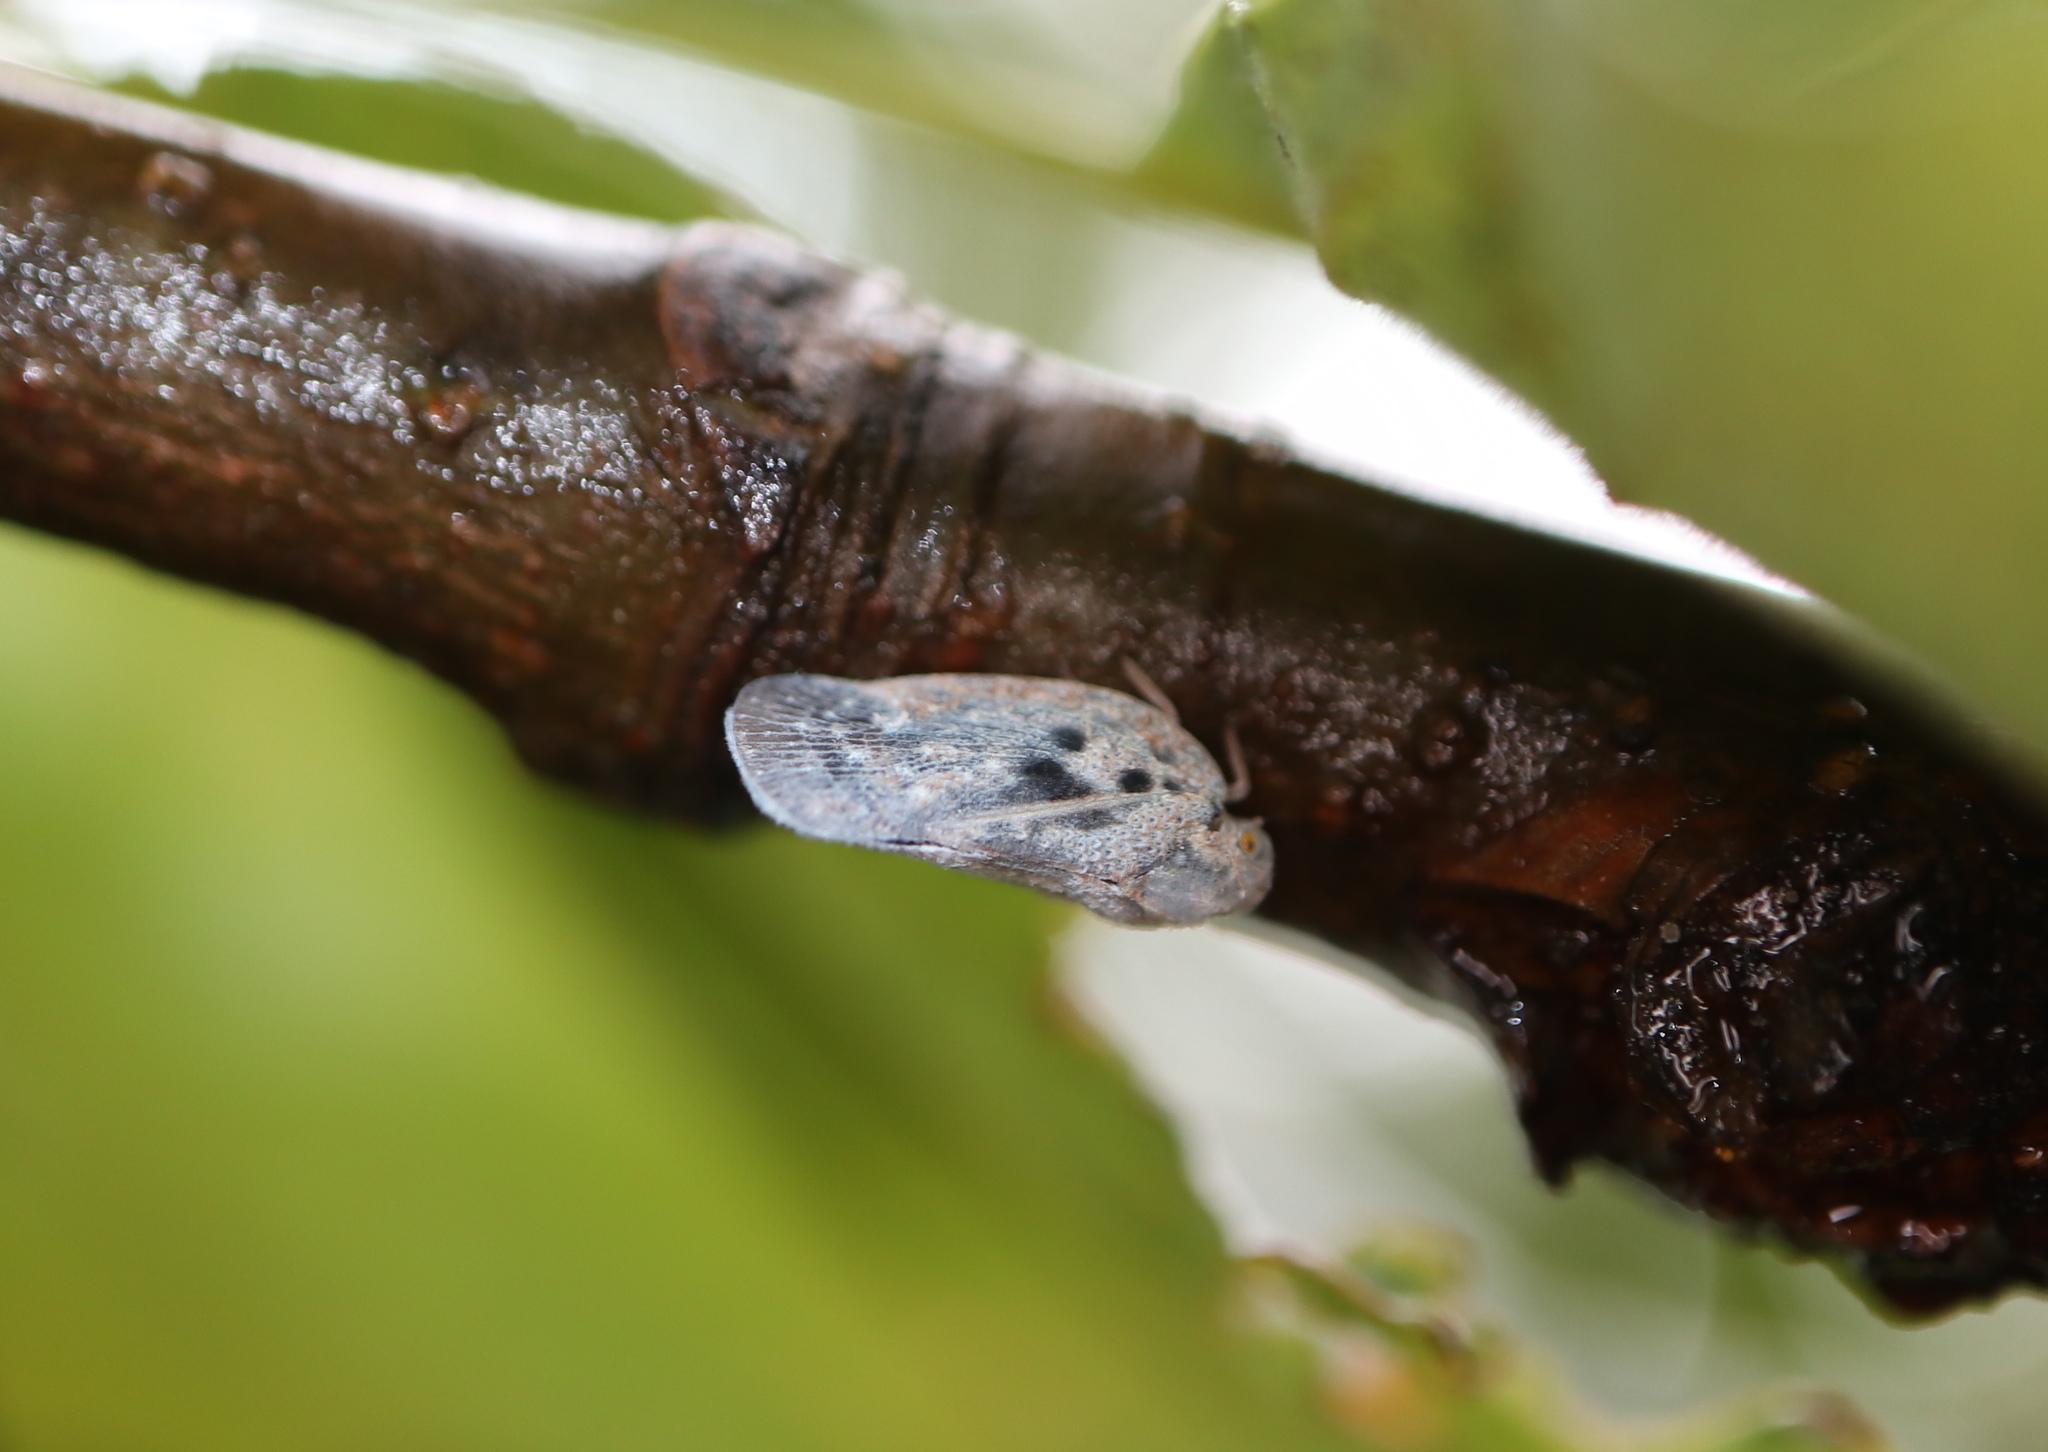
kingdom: Animalia
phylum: Arthropoda
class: Insecta
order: Hemiptera
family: Flatidae
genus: Metcalfa
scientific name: Metcalfa pruinosa
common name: Citrus flatid planthopper
